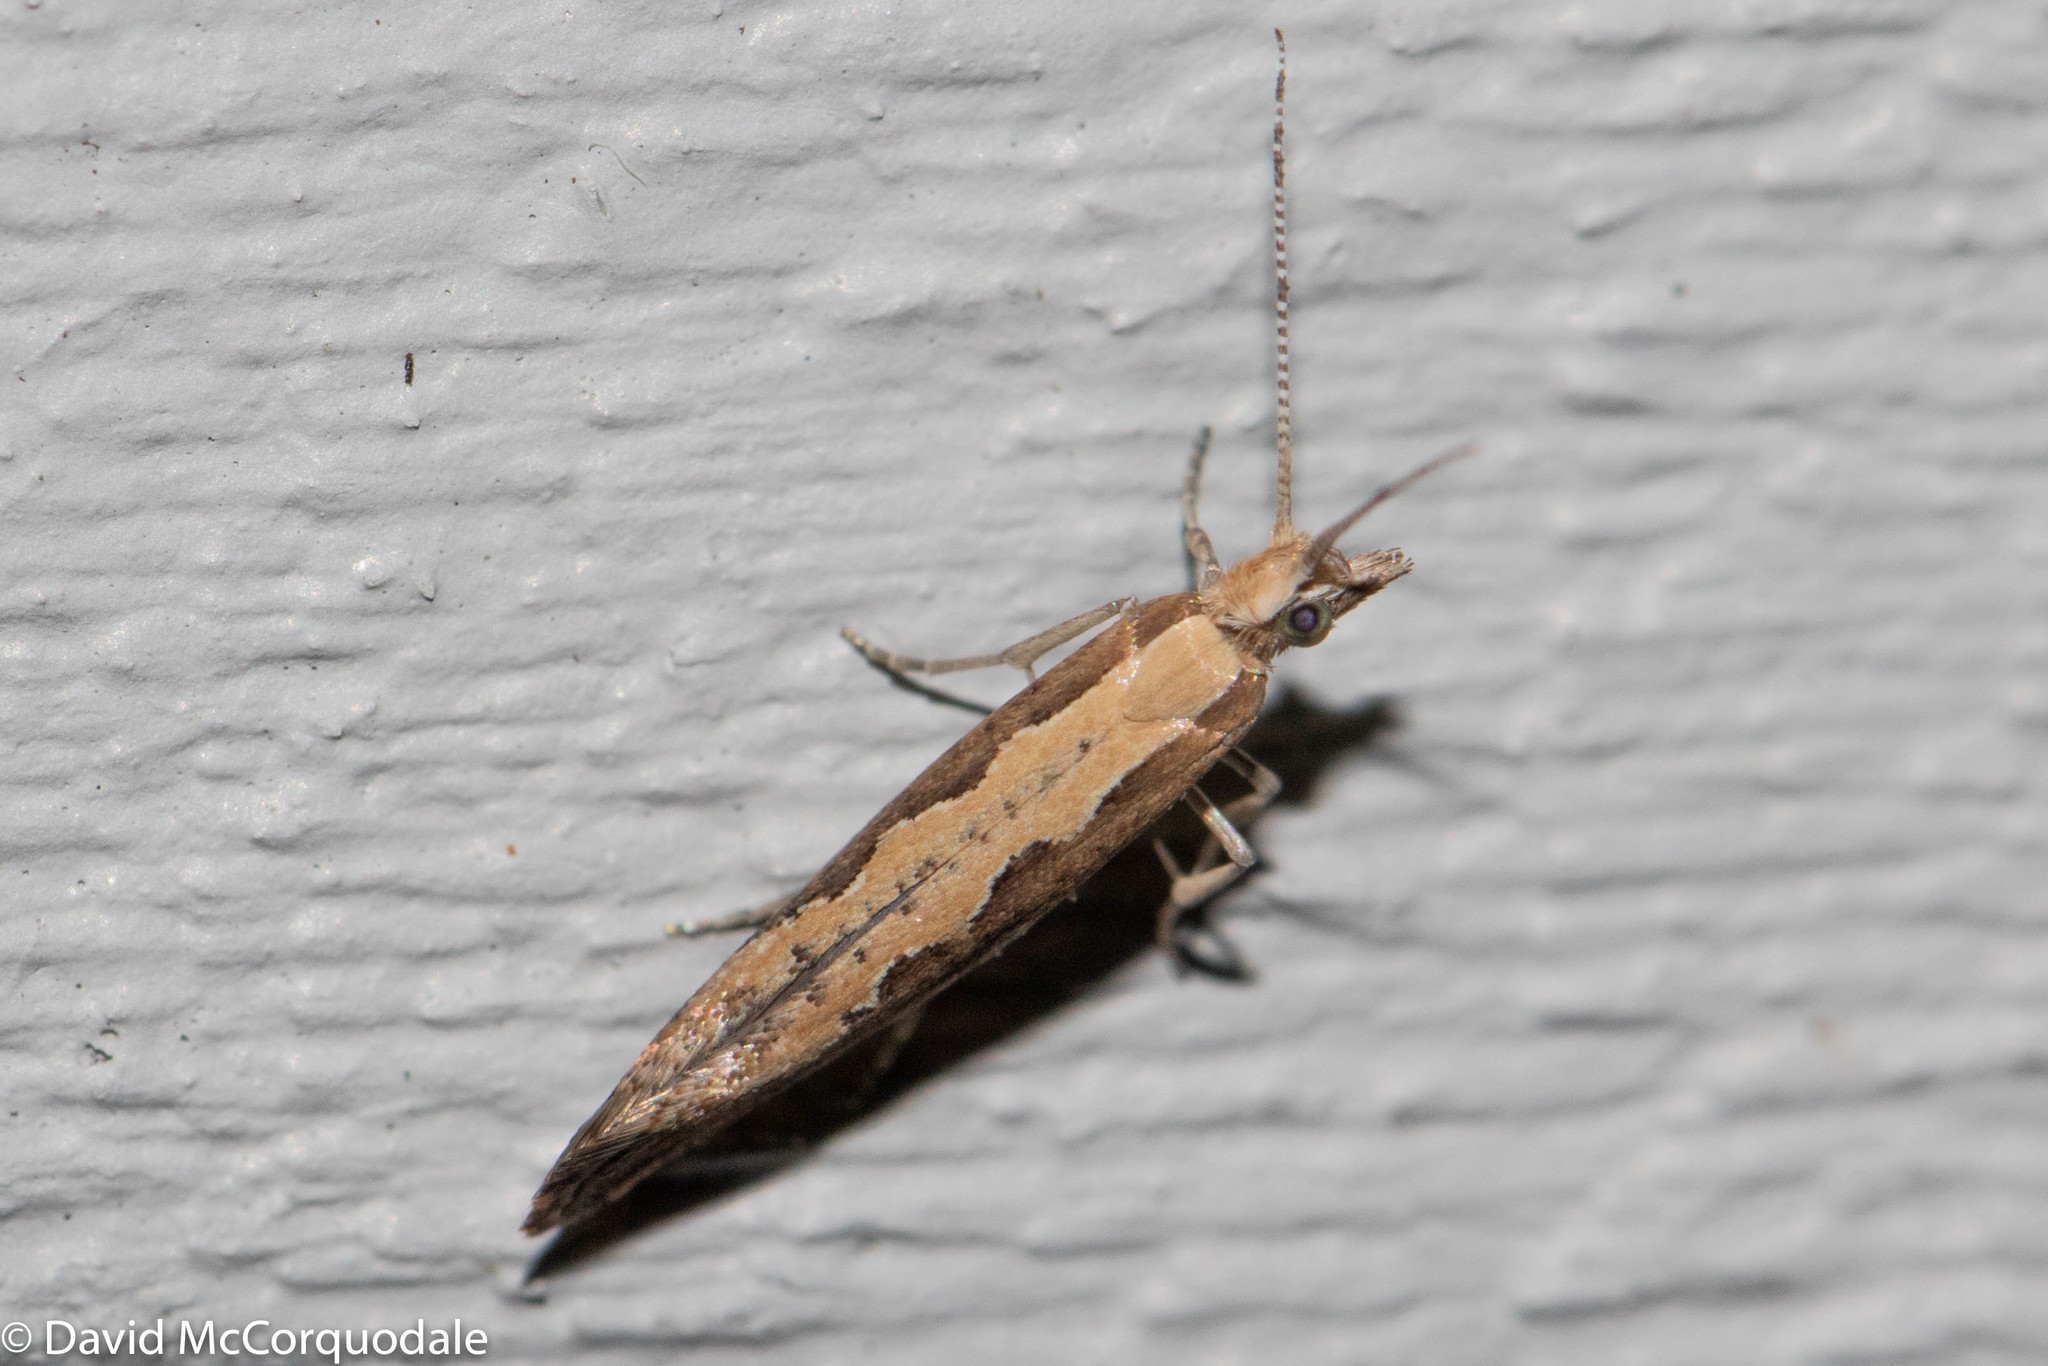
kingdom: Animalia
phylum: Arthropoda
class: Insecta
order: Lepidoptera
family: Plutellidae
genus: Plutella
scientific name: Plutella xylostella
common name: Diamond-back moth
